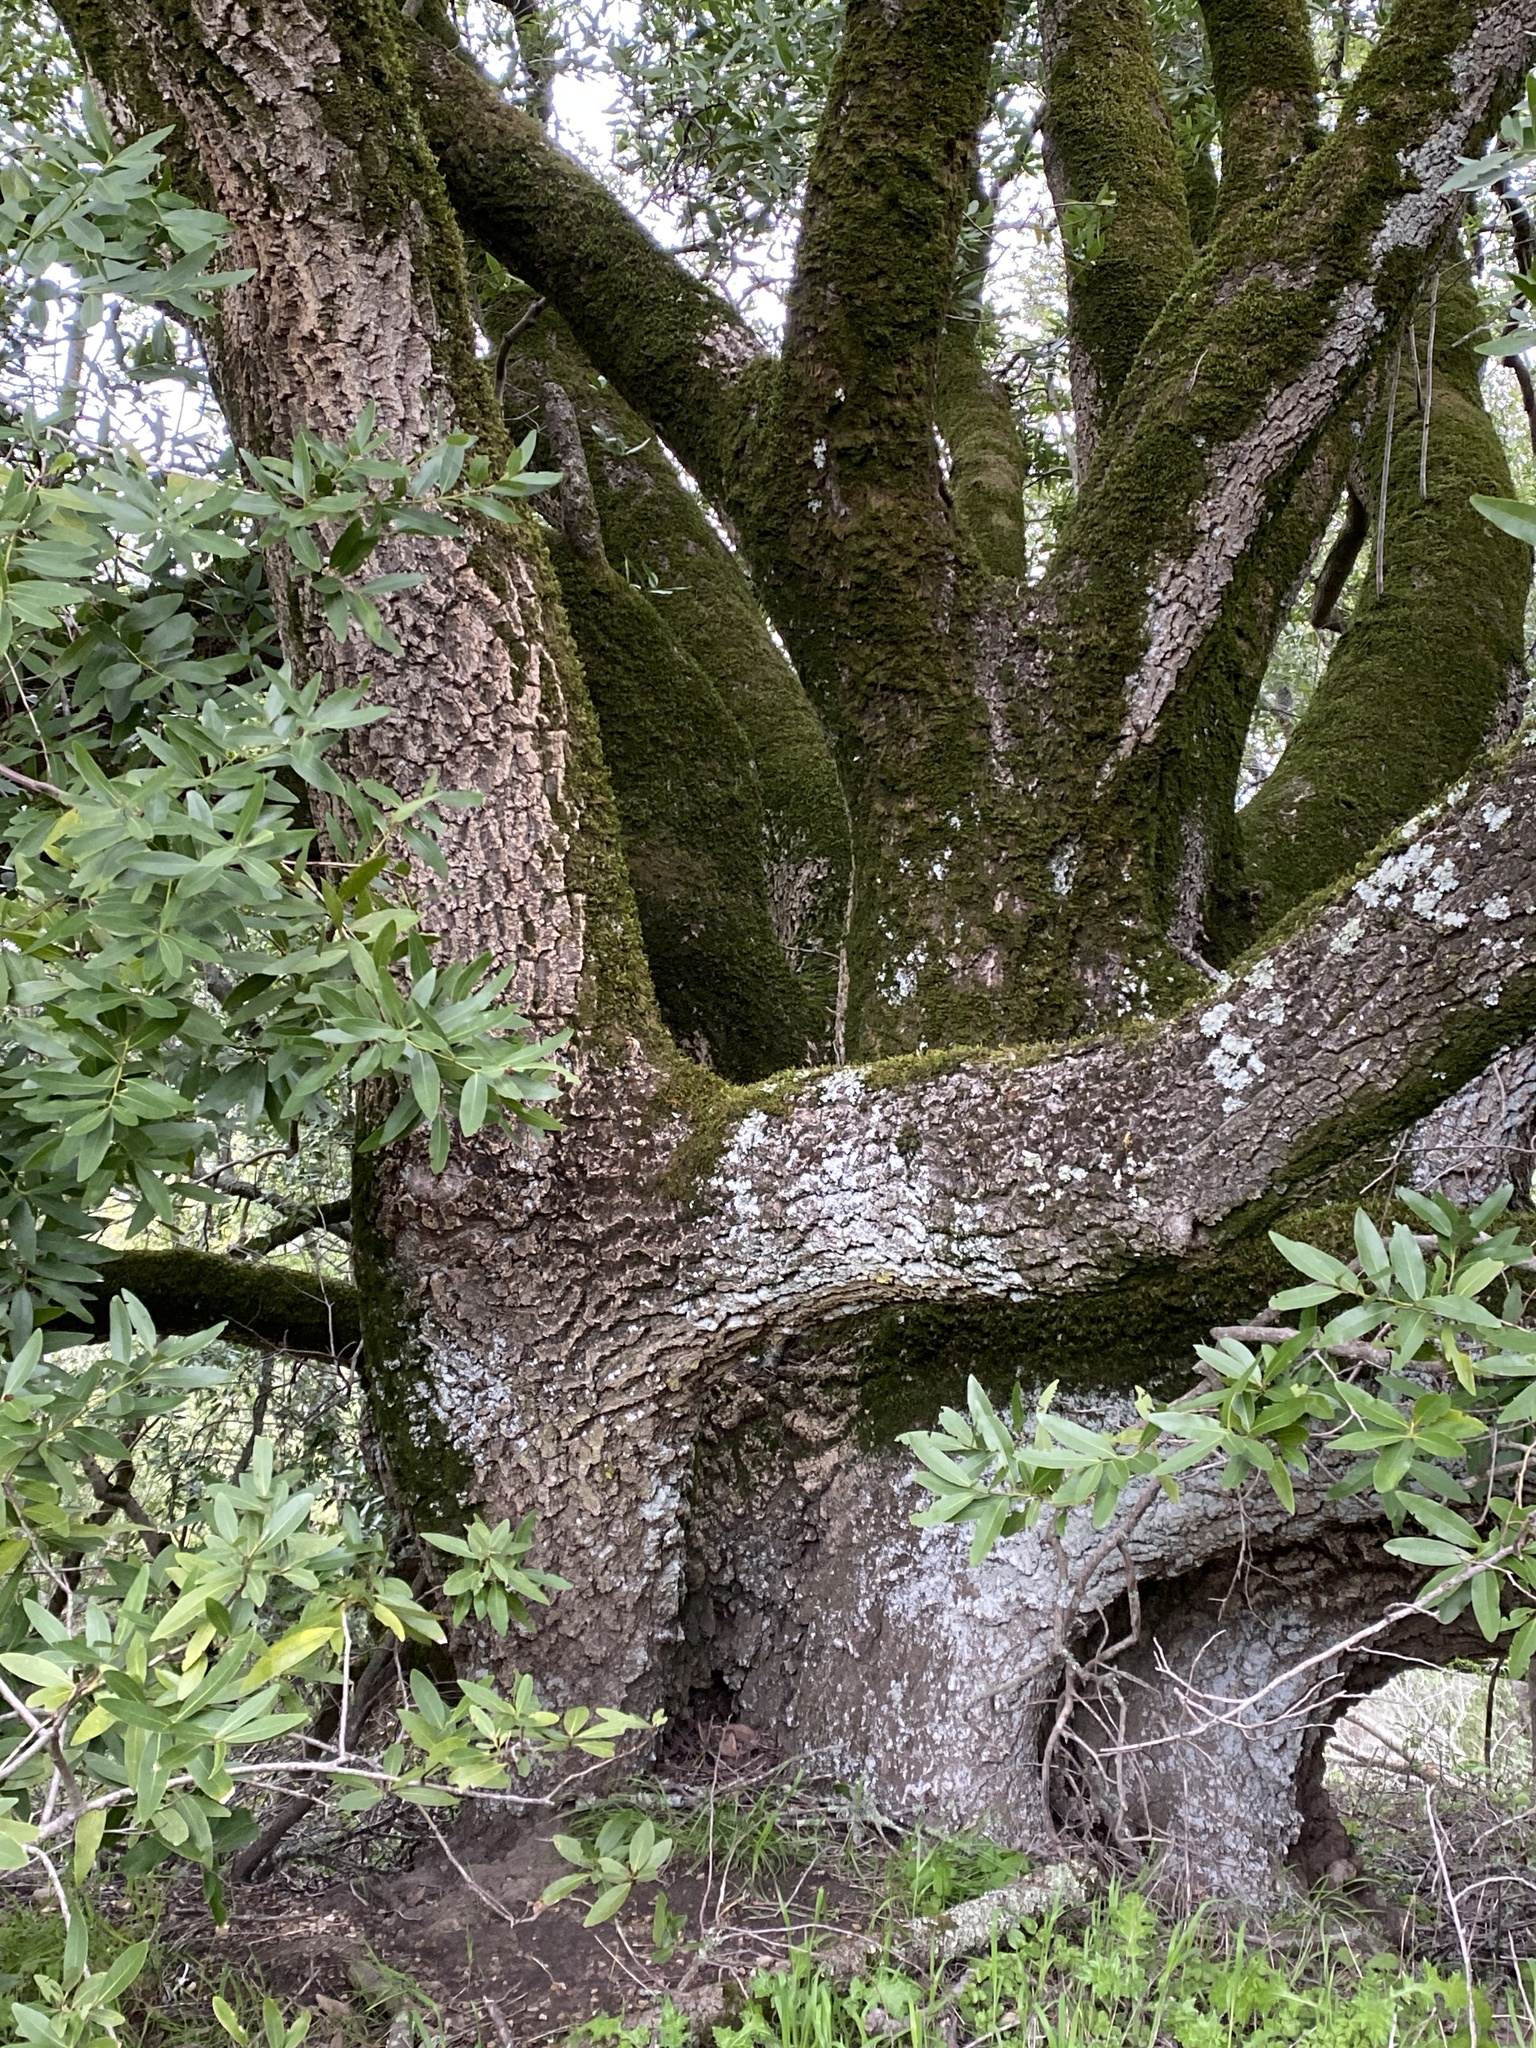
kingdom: Plantae
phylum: Tracheophyta
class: Magnoliopsida
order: Laurales
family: Lauraceae
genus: Umbellularia
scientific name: Umbellularia californica
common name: California bay
